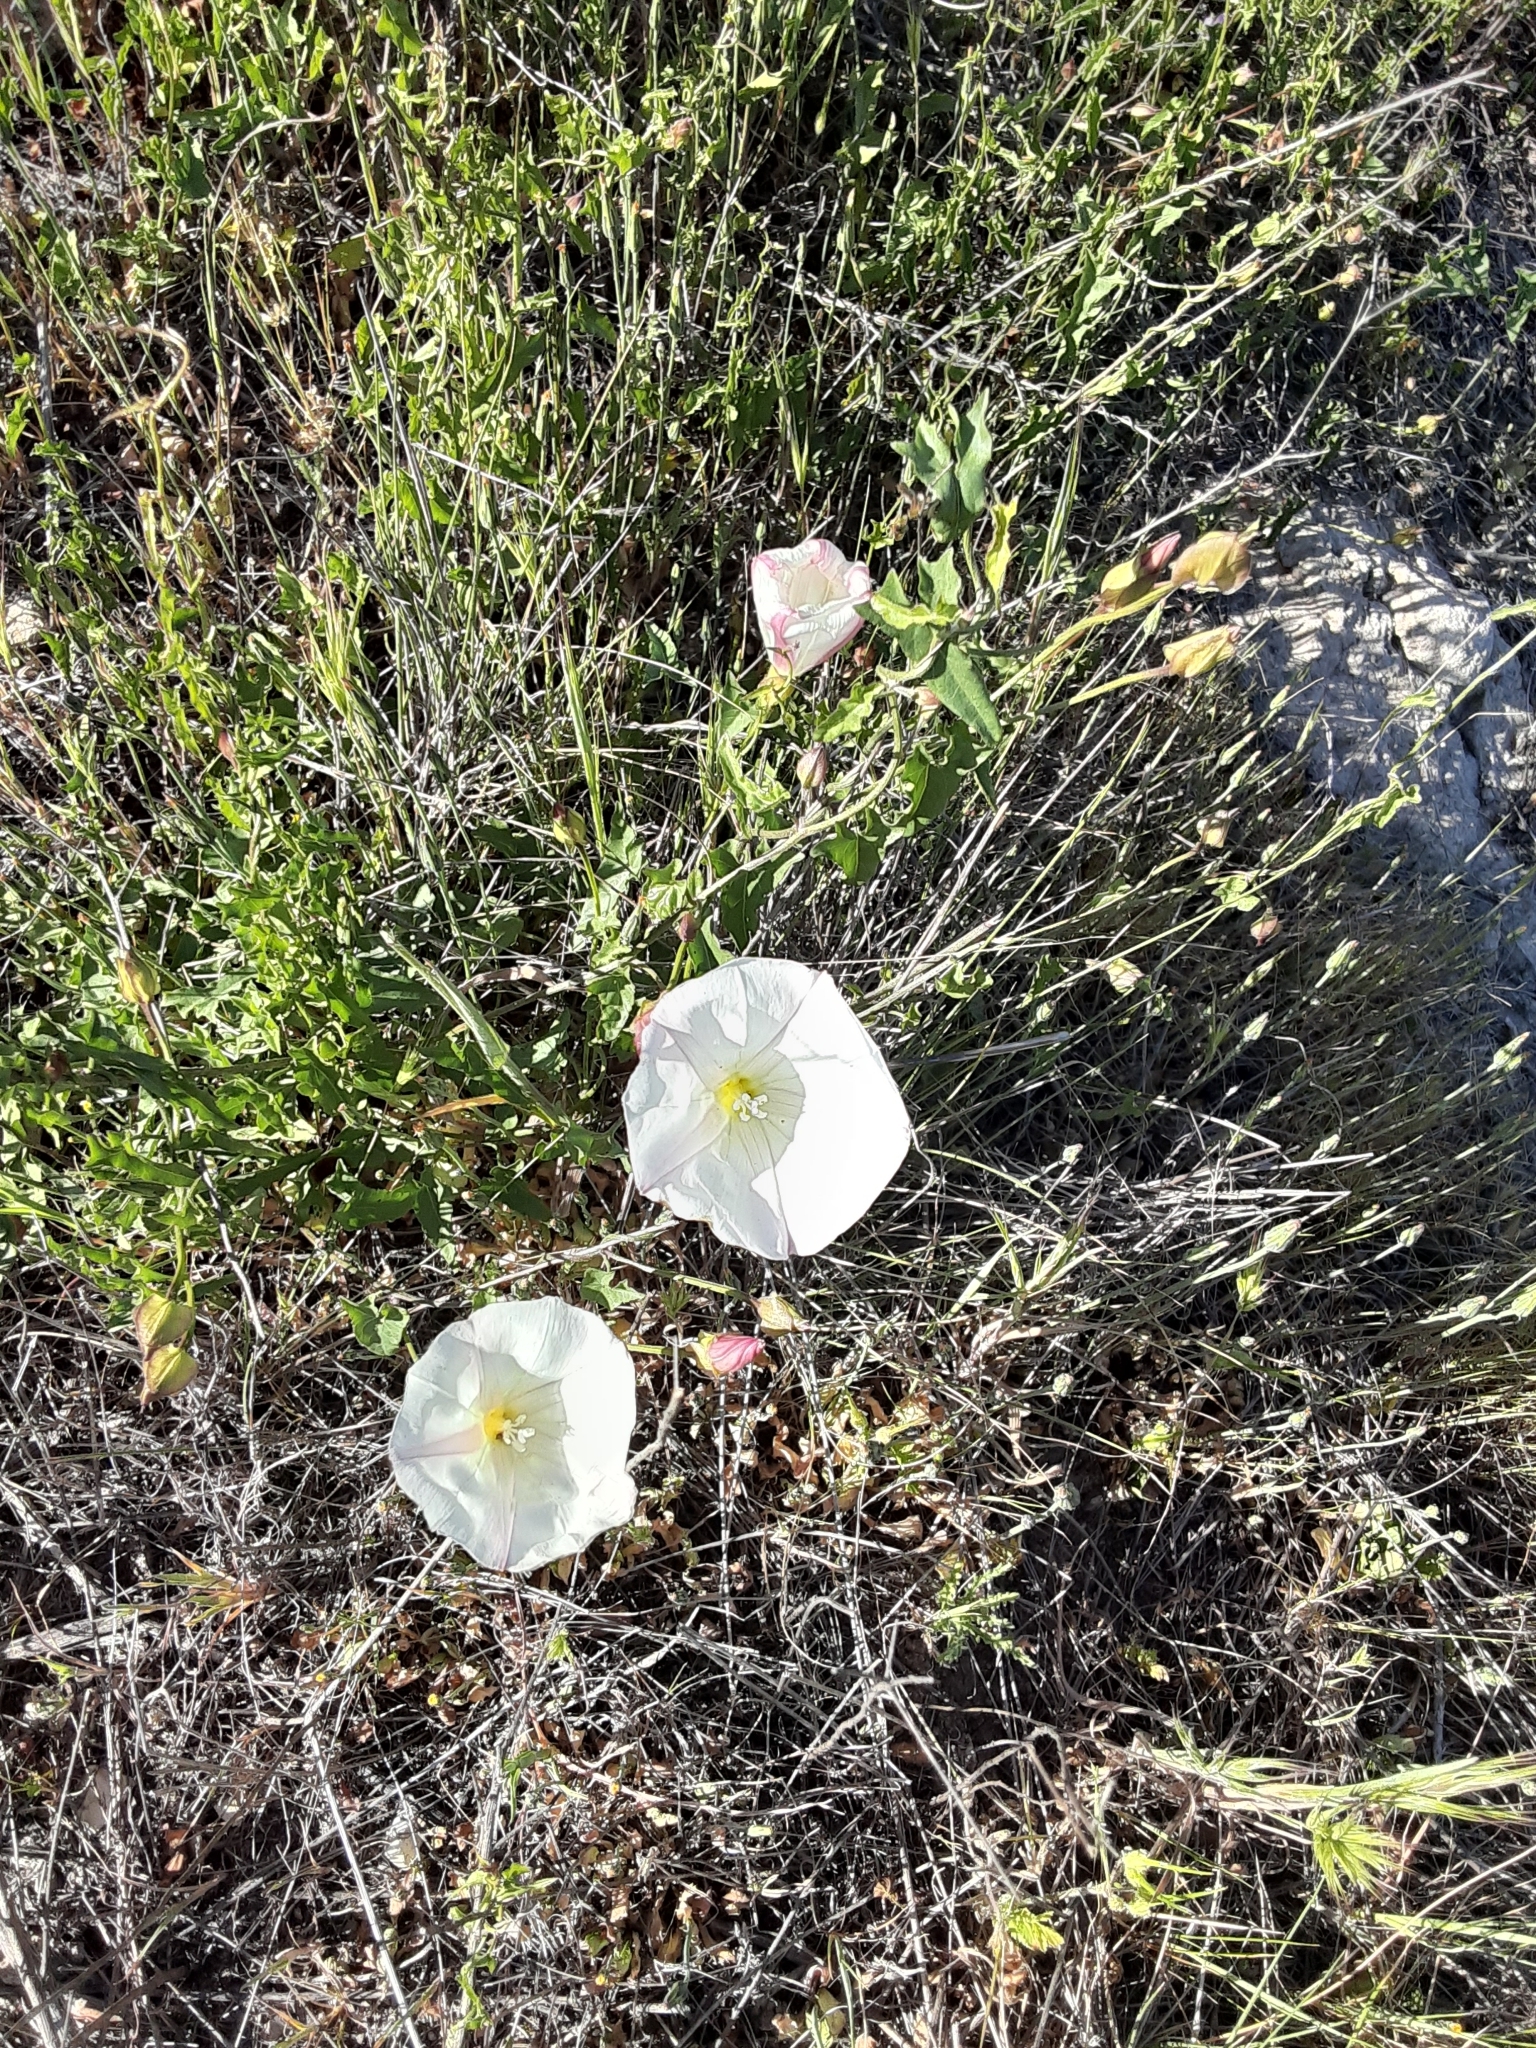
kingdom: Plantae
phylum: Tracheophyta
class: Magnoliopsida
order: Solanales
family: Convolvulaceae
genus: Calystegia
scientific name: Calystegia macrostegia
